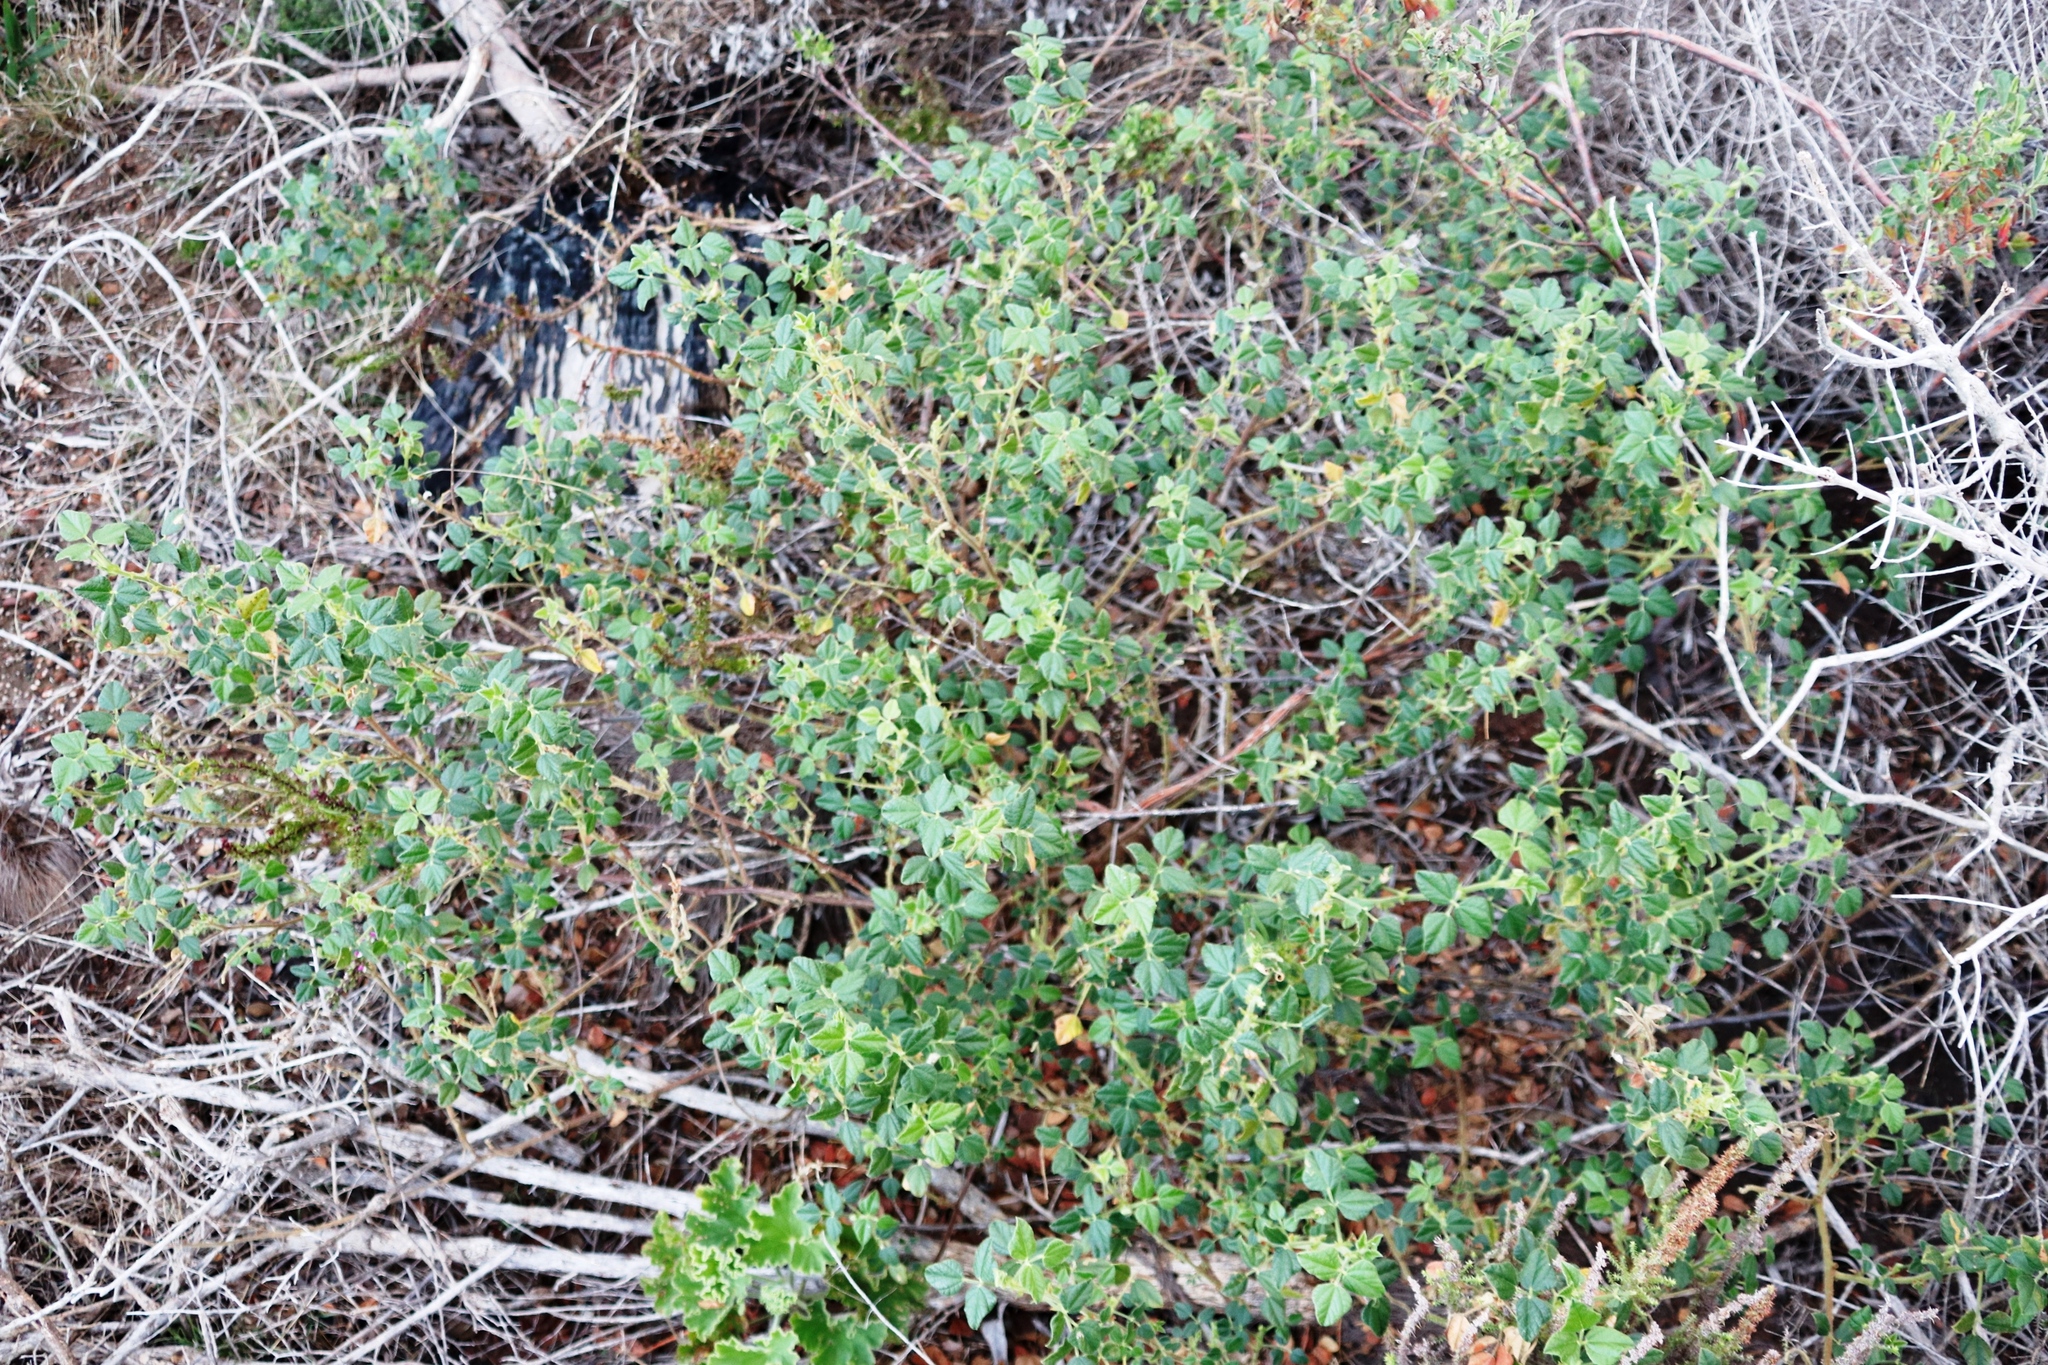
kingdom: Plantae
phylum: Tracheophyta
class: Magnoliopsida
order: Fabales
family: Fabaceae
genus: Bolusafra
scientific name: Bolusafra bituminosa
